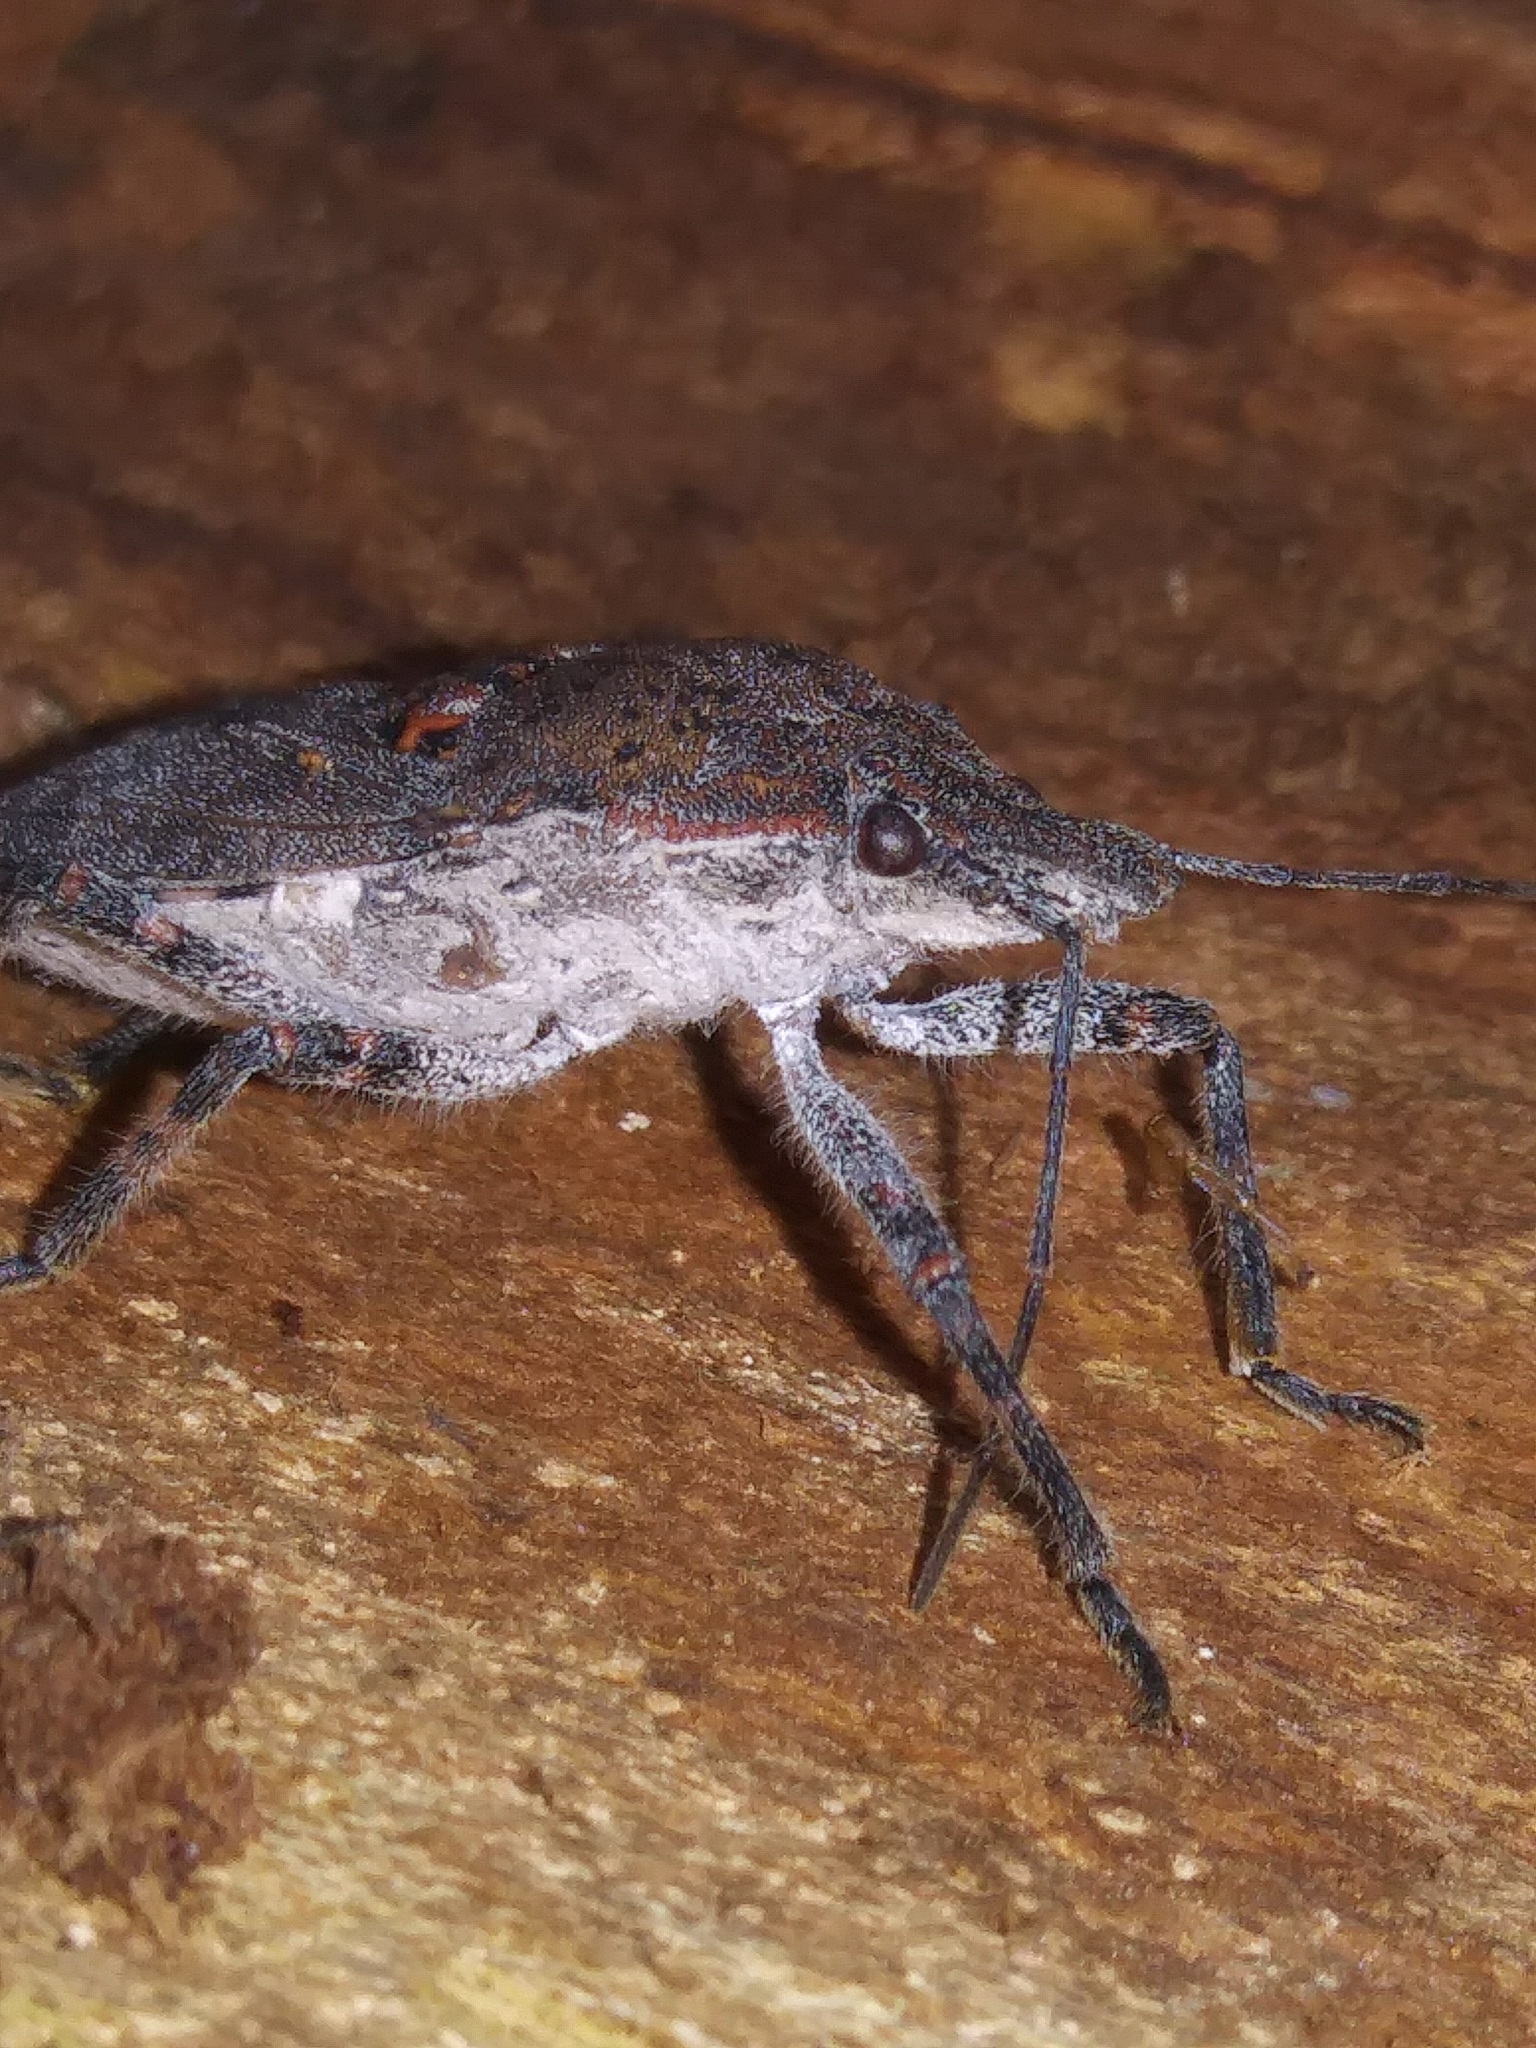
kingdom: Animalia
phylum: Arthropoda
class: Insecta
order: Hemiptera
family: Pentatomidae
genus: Brochymena
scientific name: Brochymena quadripustulata
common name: Four-humped stink bug
